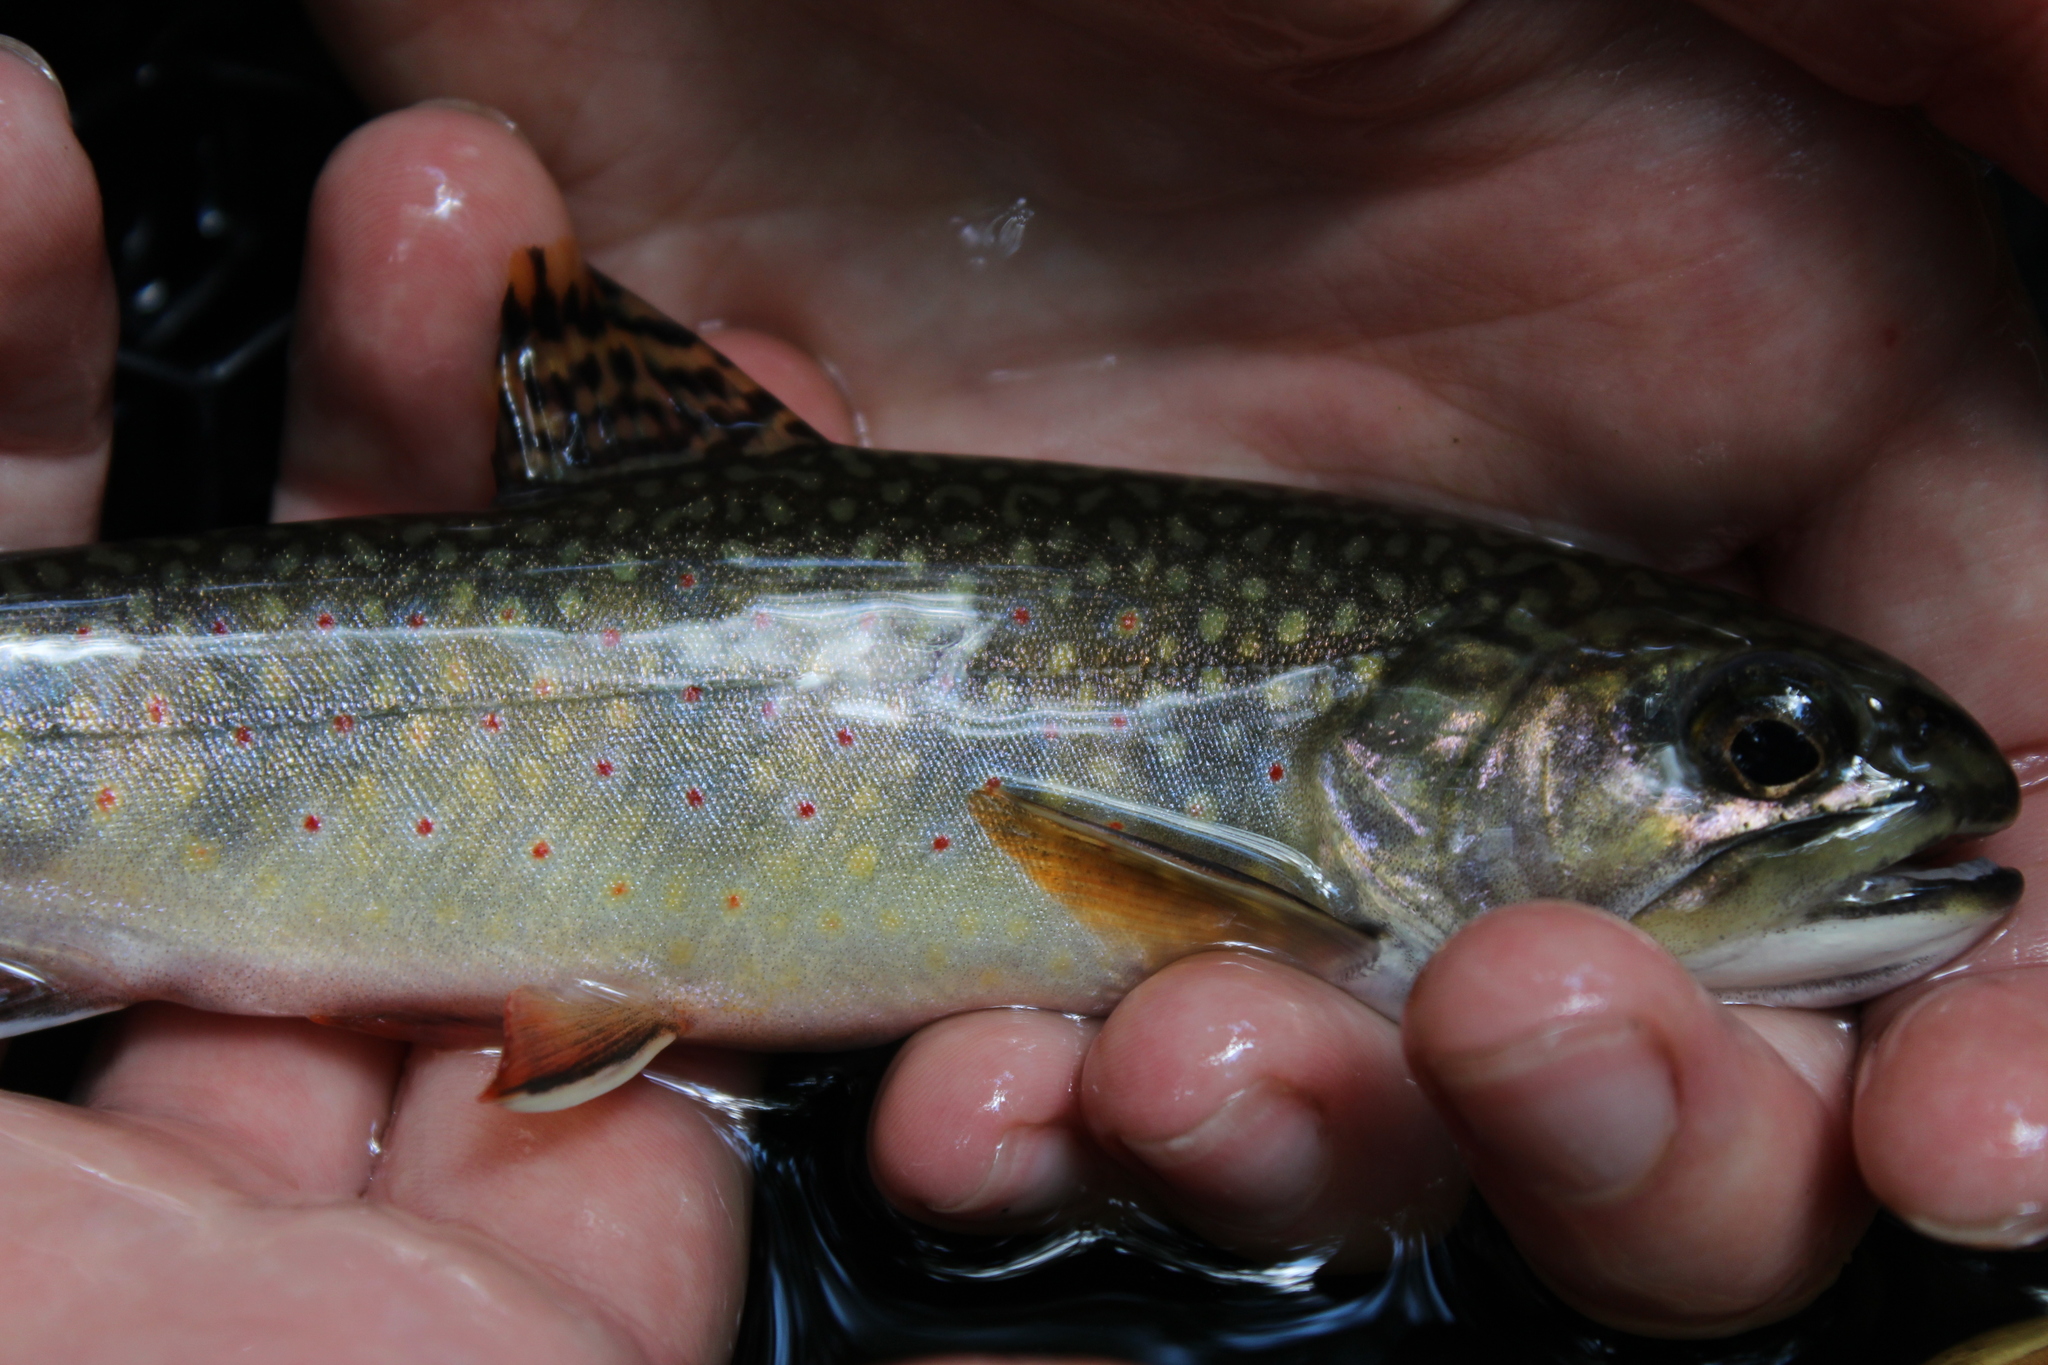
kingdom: Animalia
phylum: Chordata
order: Salmoniformes
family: Salmonidae
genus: Salvelinus
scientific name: Salvelinus fontinalis
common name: Brook trout
